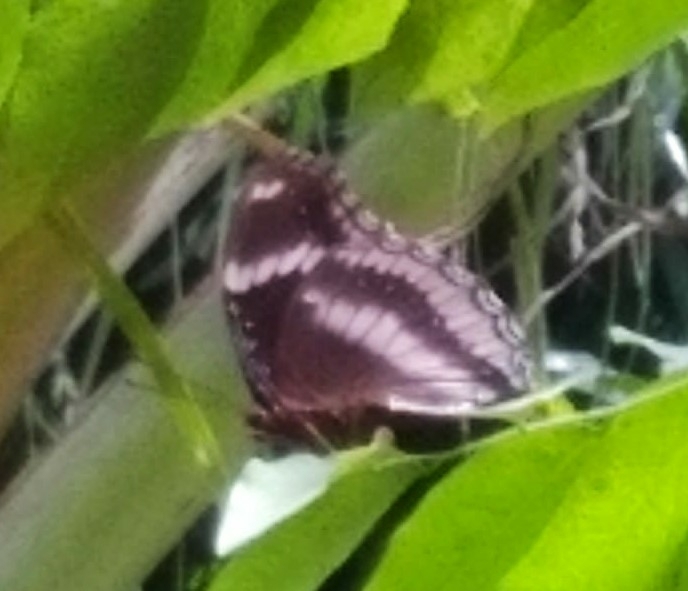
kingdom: Animalia
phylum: Arthropoda
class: Insecta
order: Lepidoptera
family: Nymphalidae
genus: Hypolimnas
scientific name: Hypolimnas bolina
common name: Great eggfly
